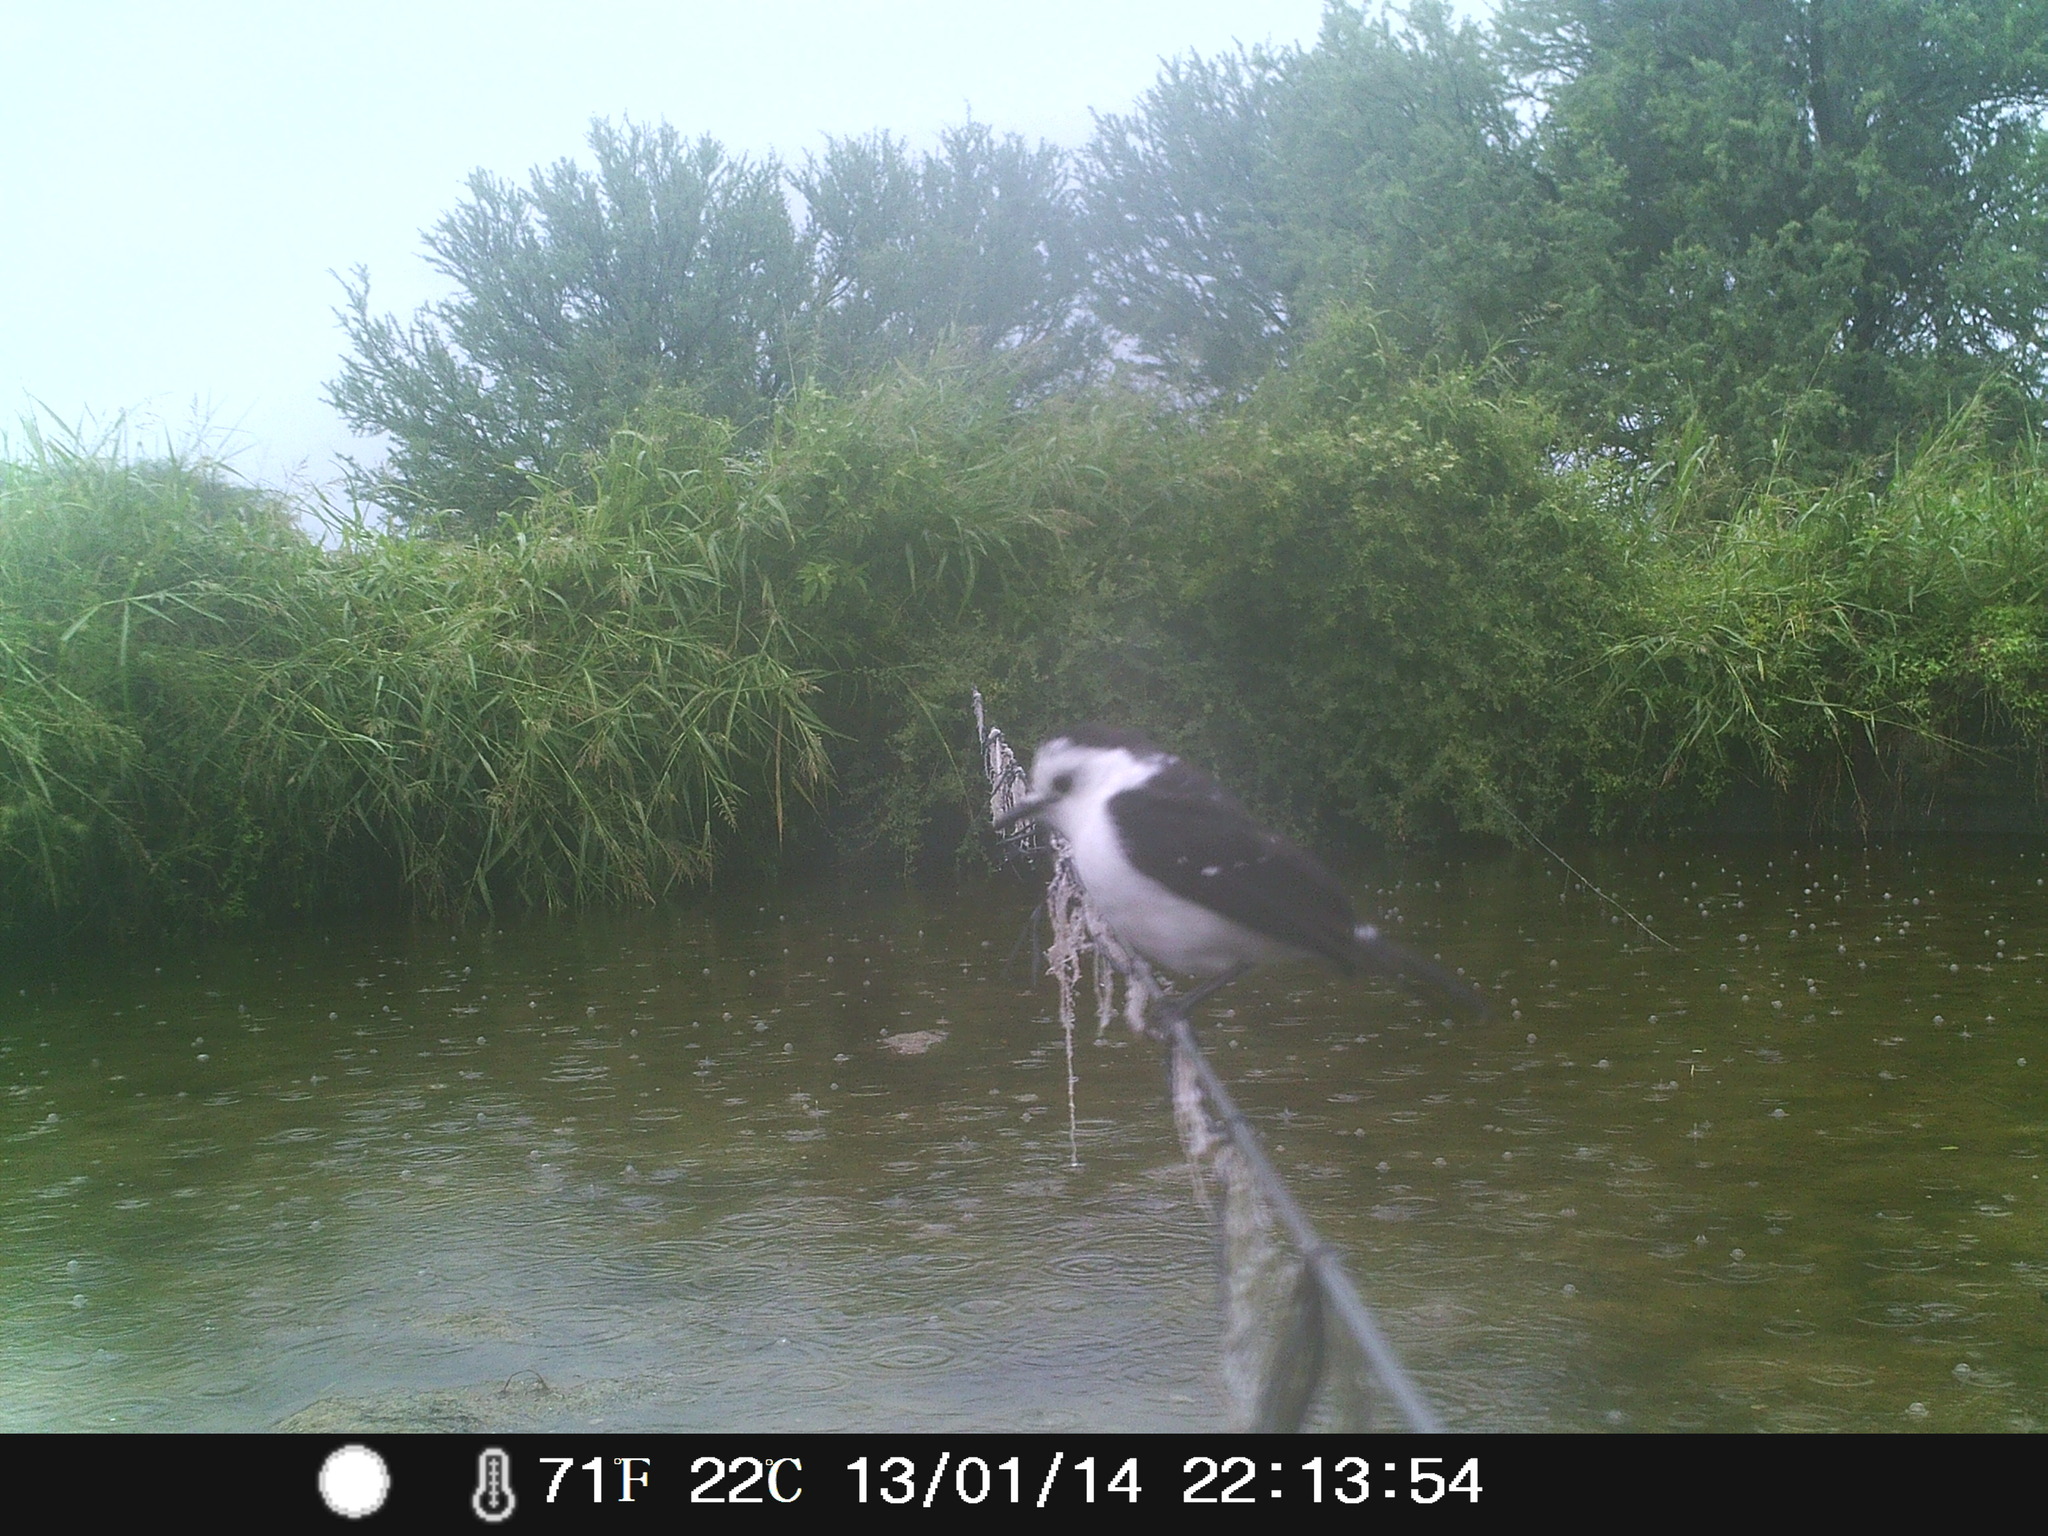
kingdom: Animalia
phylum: Chordata
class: Aves
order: Passeriformes
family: Tyrannidae
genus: Fluvicola
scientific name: Fluvicola pica
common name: Pied water-tyrant
